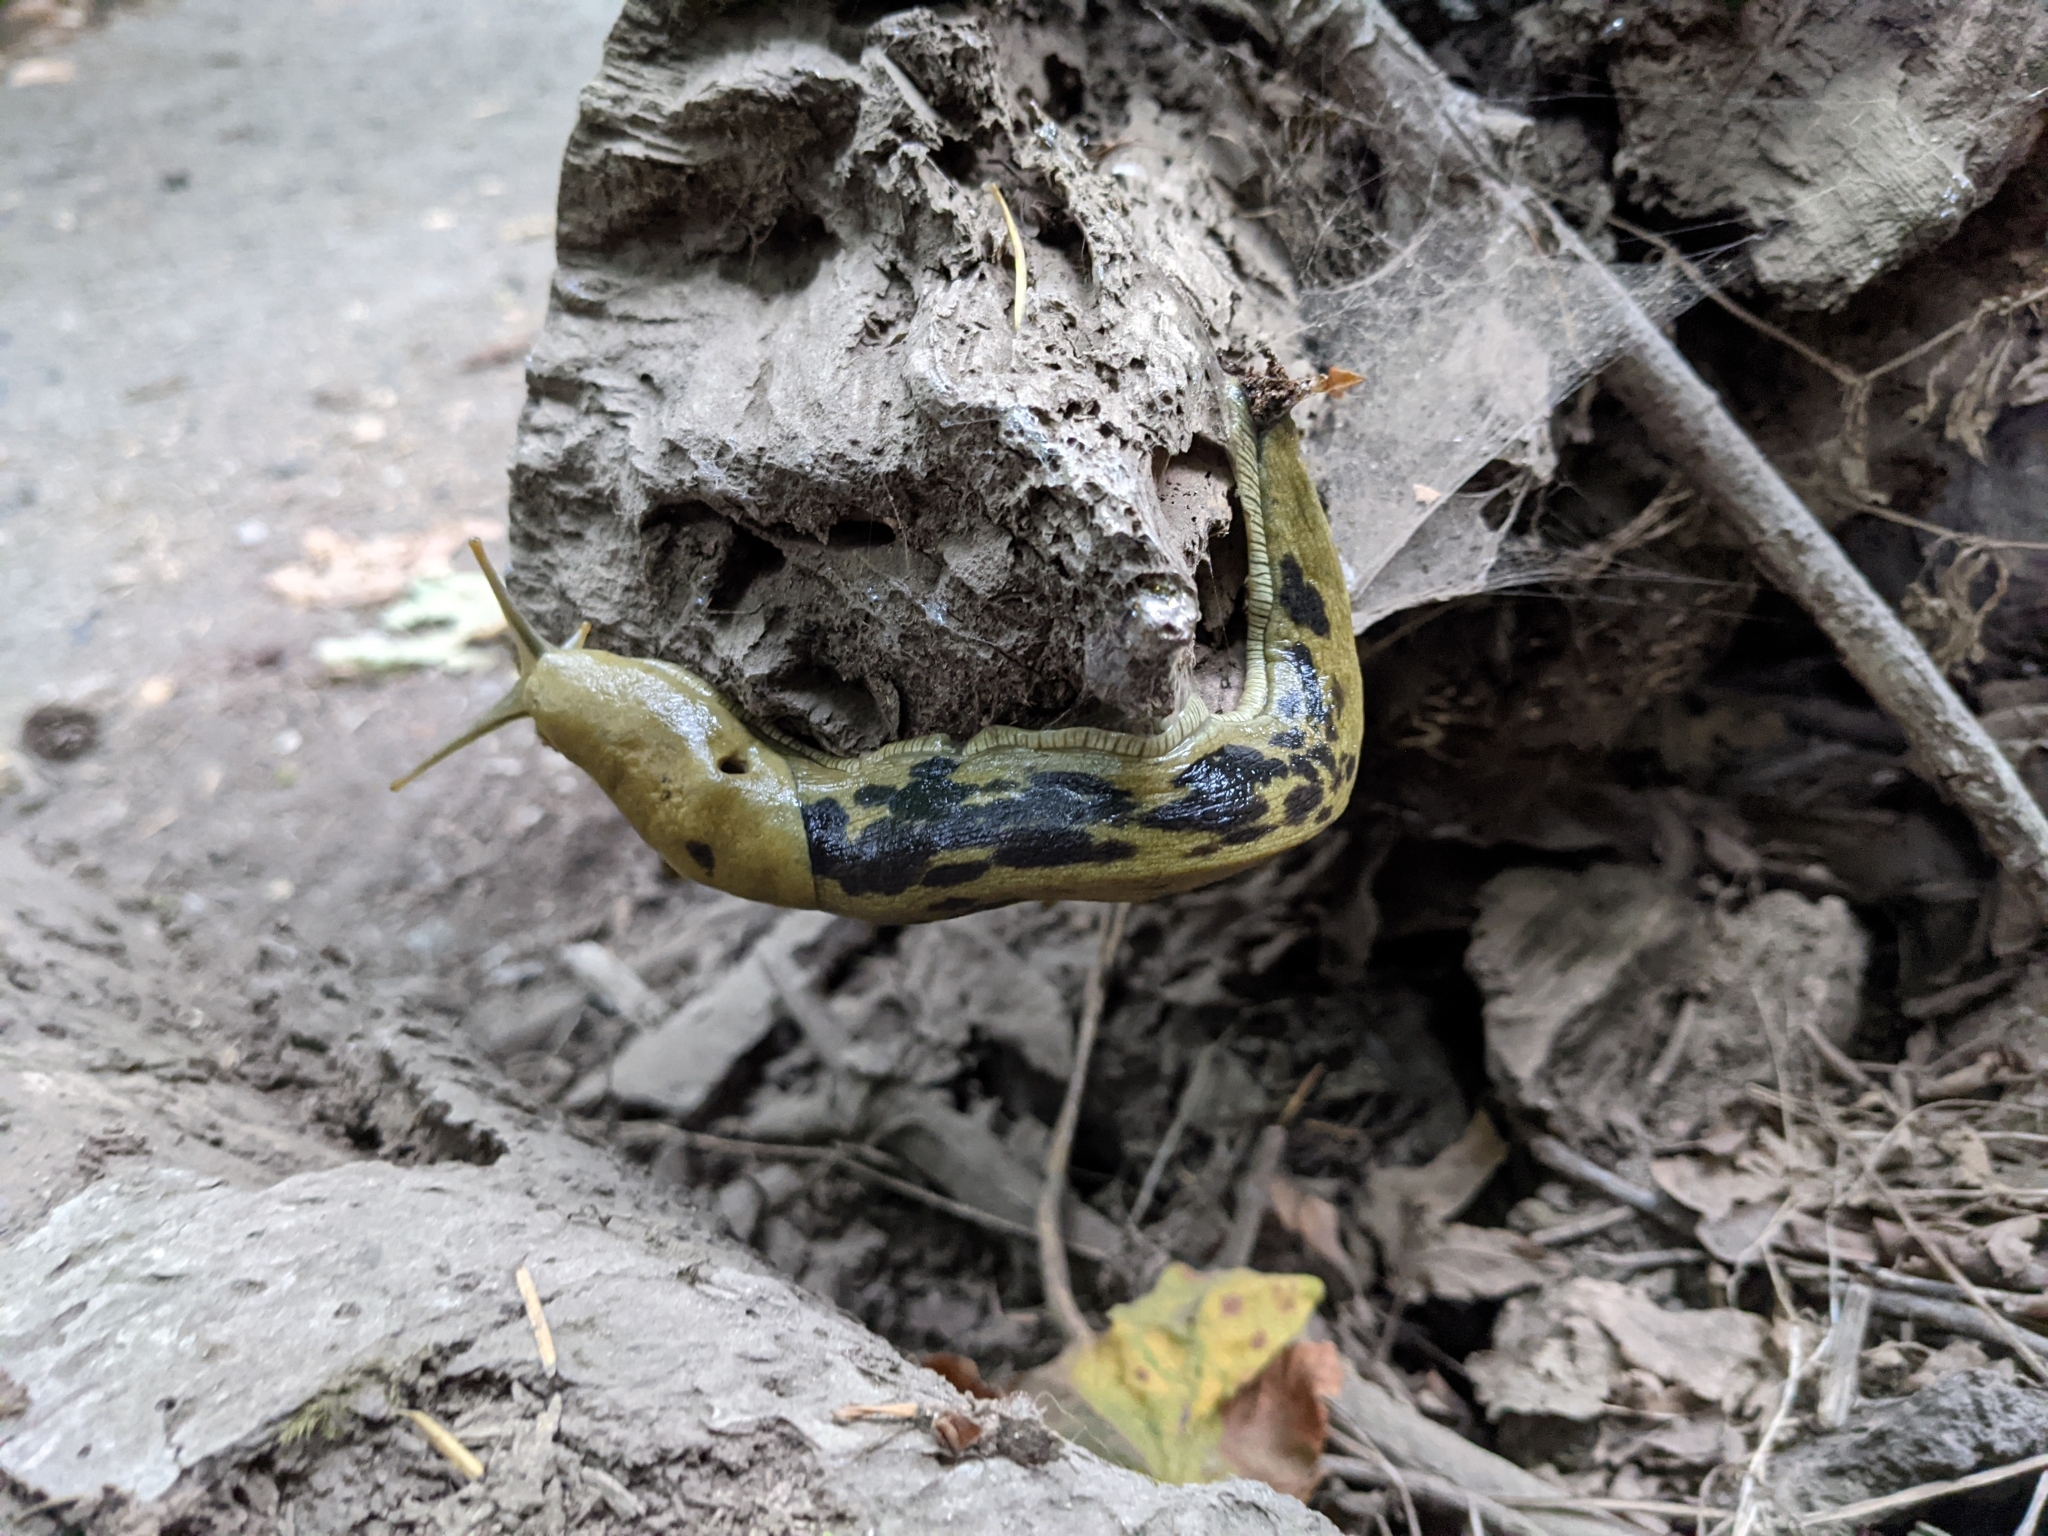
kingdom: Animalia
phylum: Mollusca
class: Gastropoda
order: Stylommatophora
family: Ariolimacidae
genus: Ariolimax
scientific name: Ariolimax columbianus
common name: Pacific banana slug
